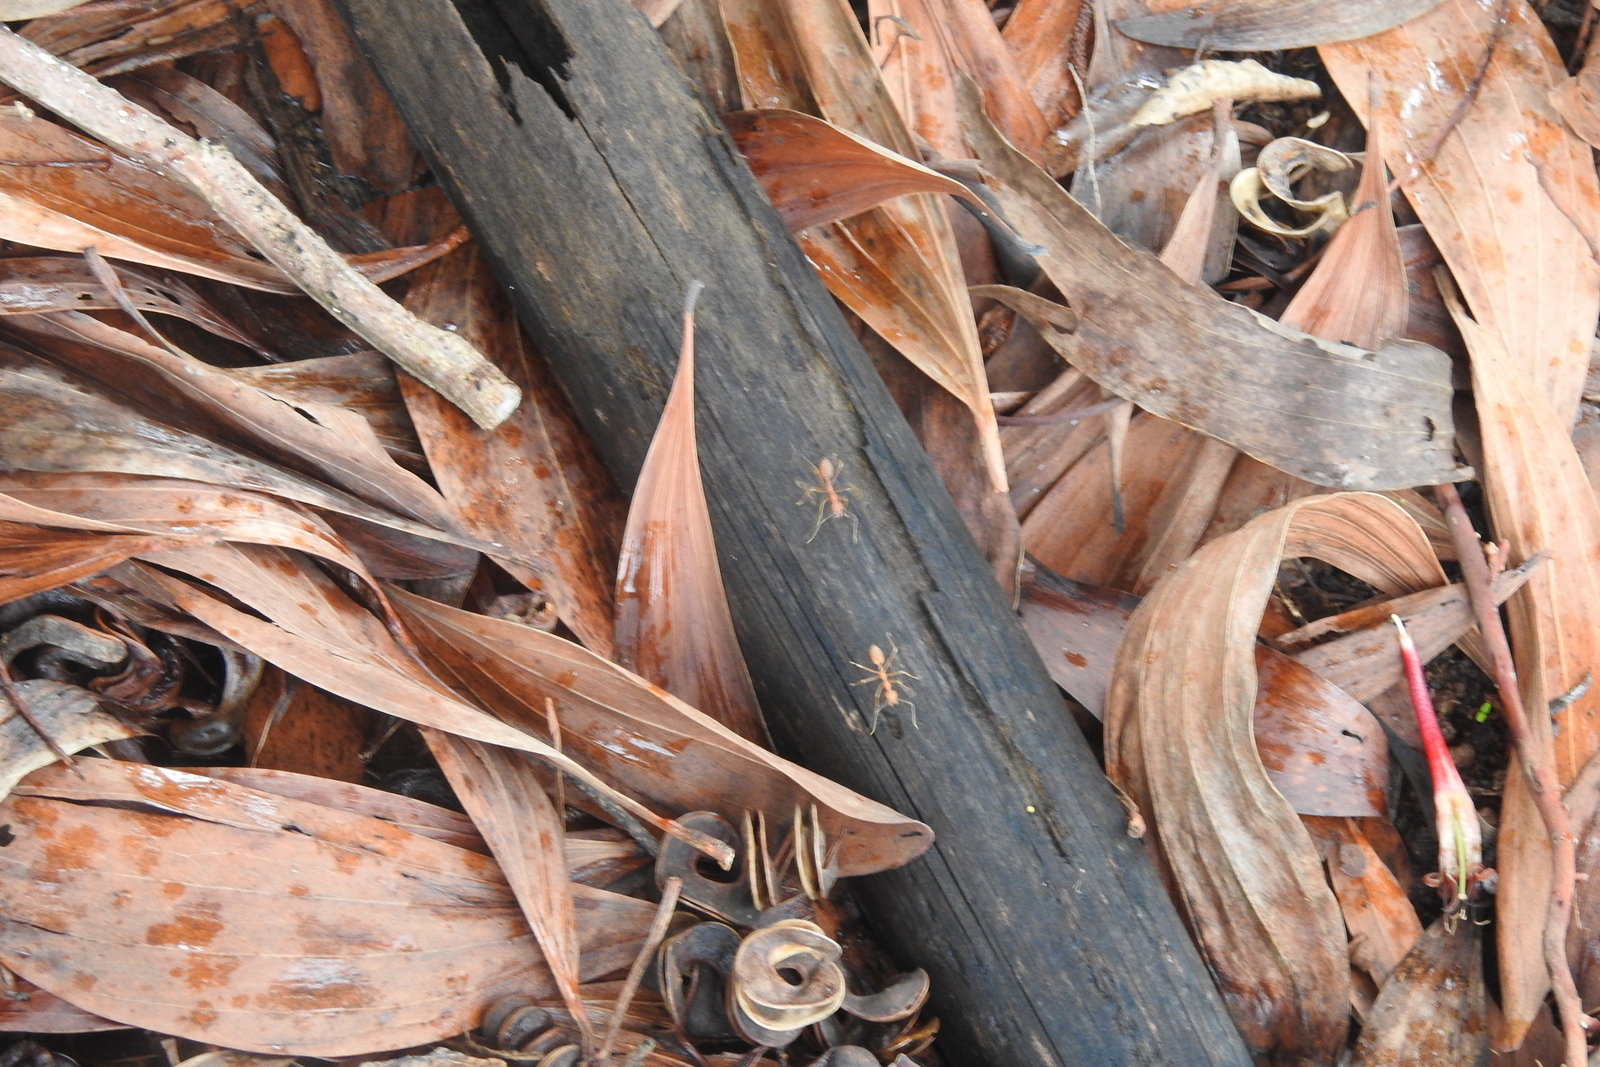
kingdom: Animalia
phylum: Arthropoda
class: Insecta
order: Hymenoptera
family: Formicidae
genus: Oecophylla
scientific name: Oecophylla smaragdina
